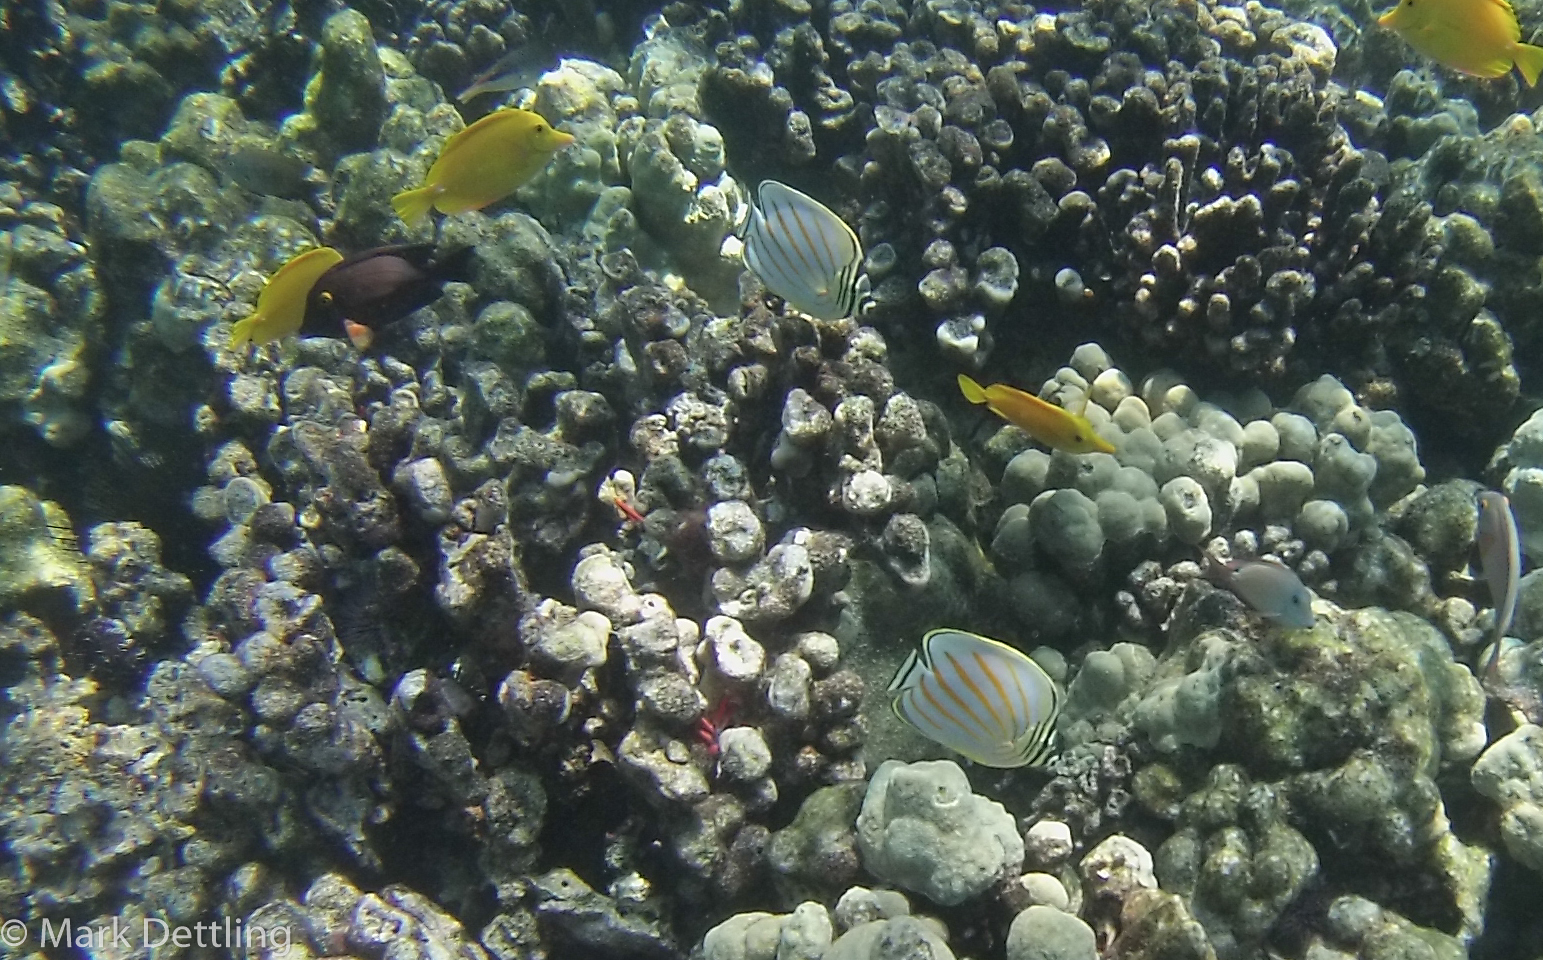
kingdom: Animalia
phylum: Chordata
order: Perciformes
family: Acanthuridae
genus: Ctenochaetus
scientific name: Ctenochaetus strigosus
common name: Bristletoothed surgeonfish
